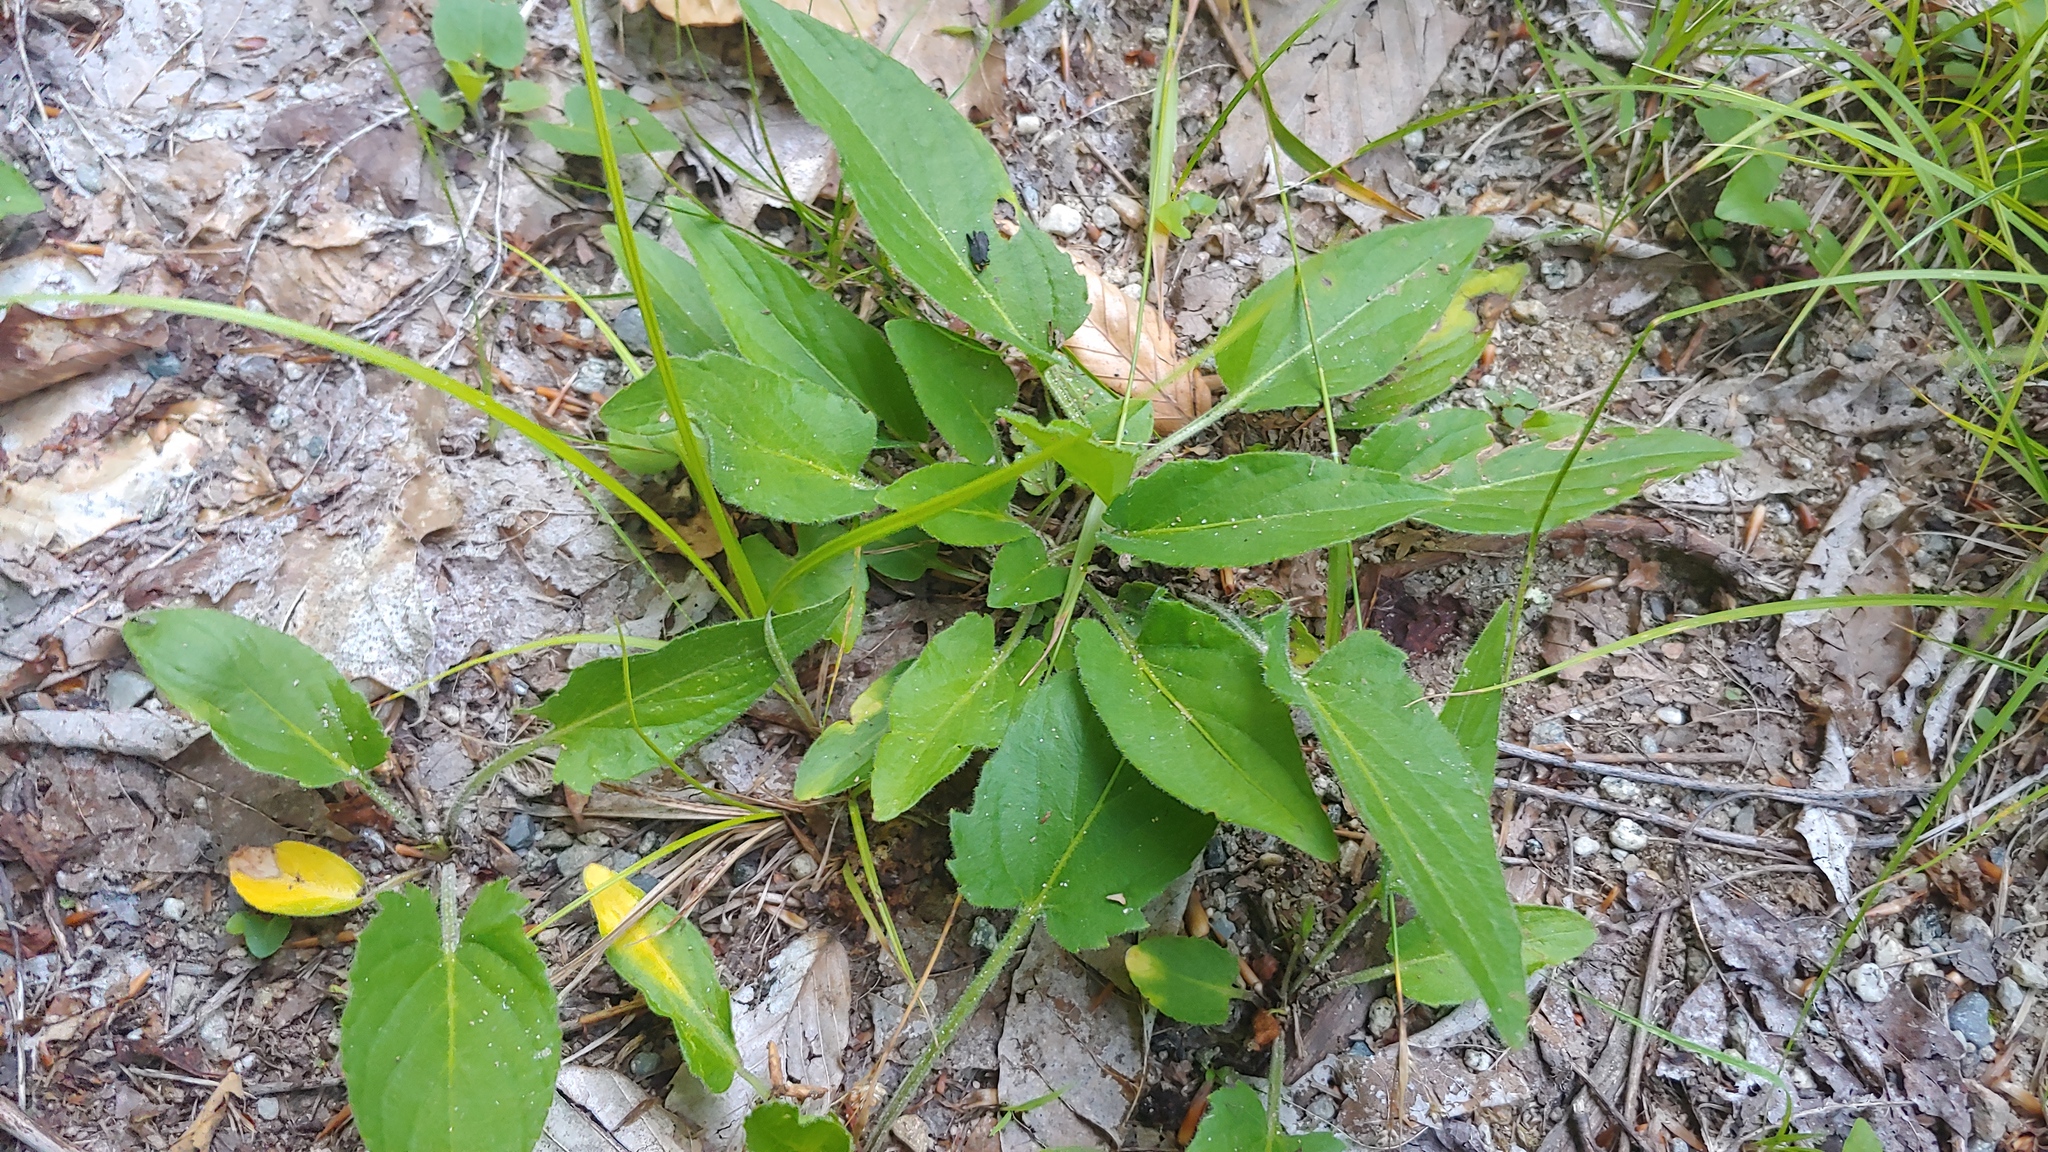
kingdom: Plantae
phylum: Tracheophyta
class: Magnoliopsida
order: Malpighiales
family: Violaceae
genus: Viola
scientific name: Viola fimbriatula
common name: Sand violet
